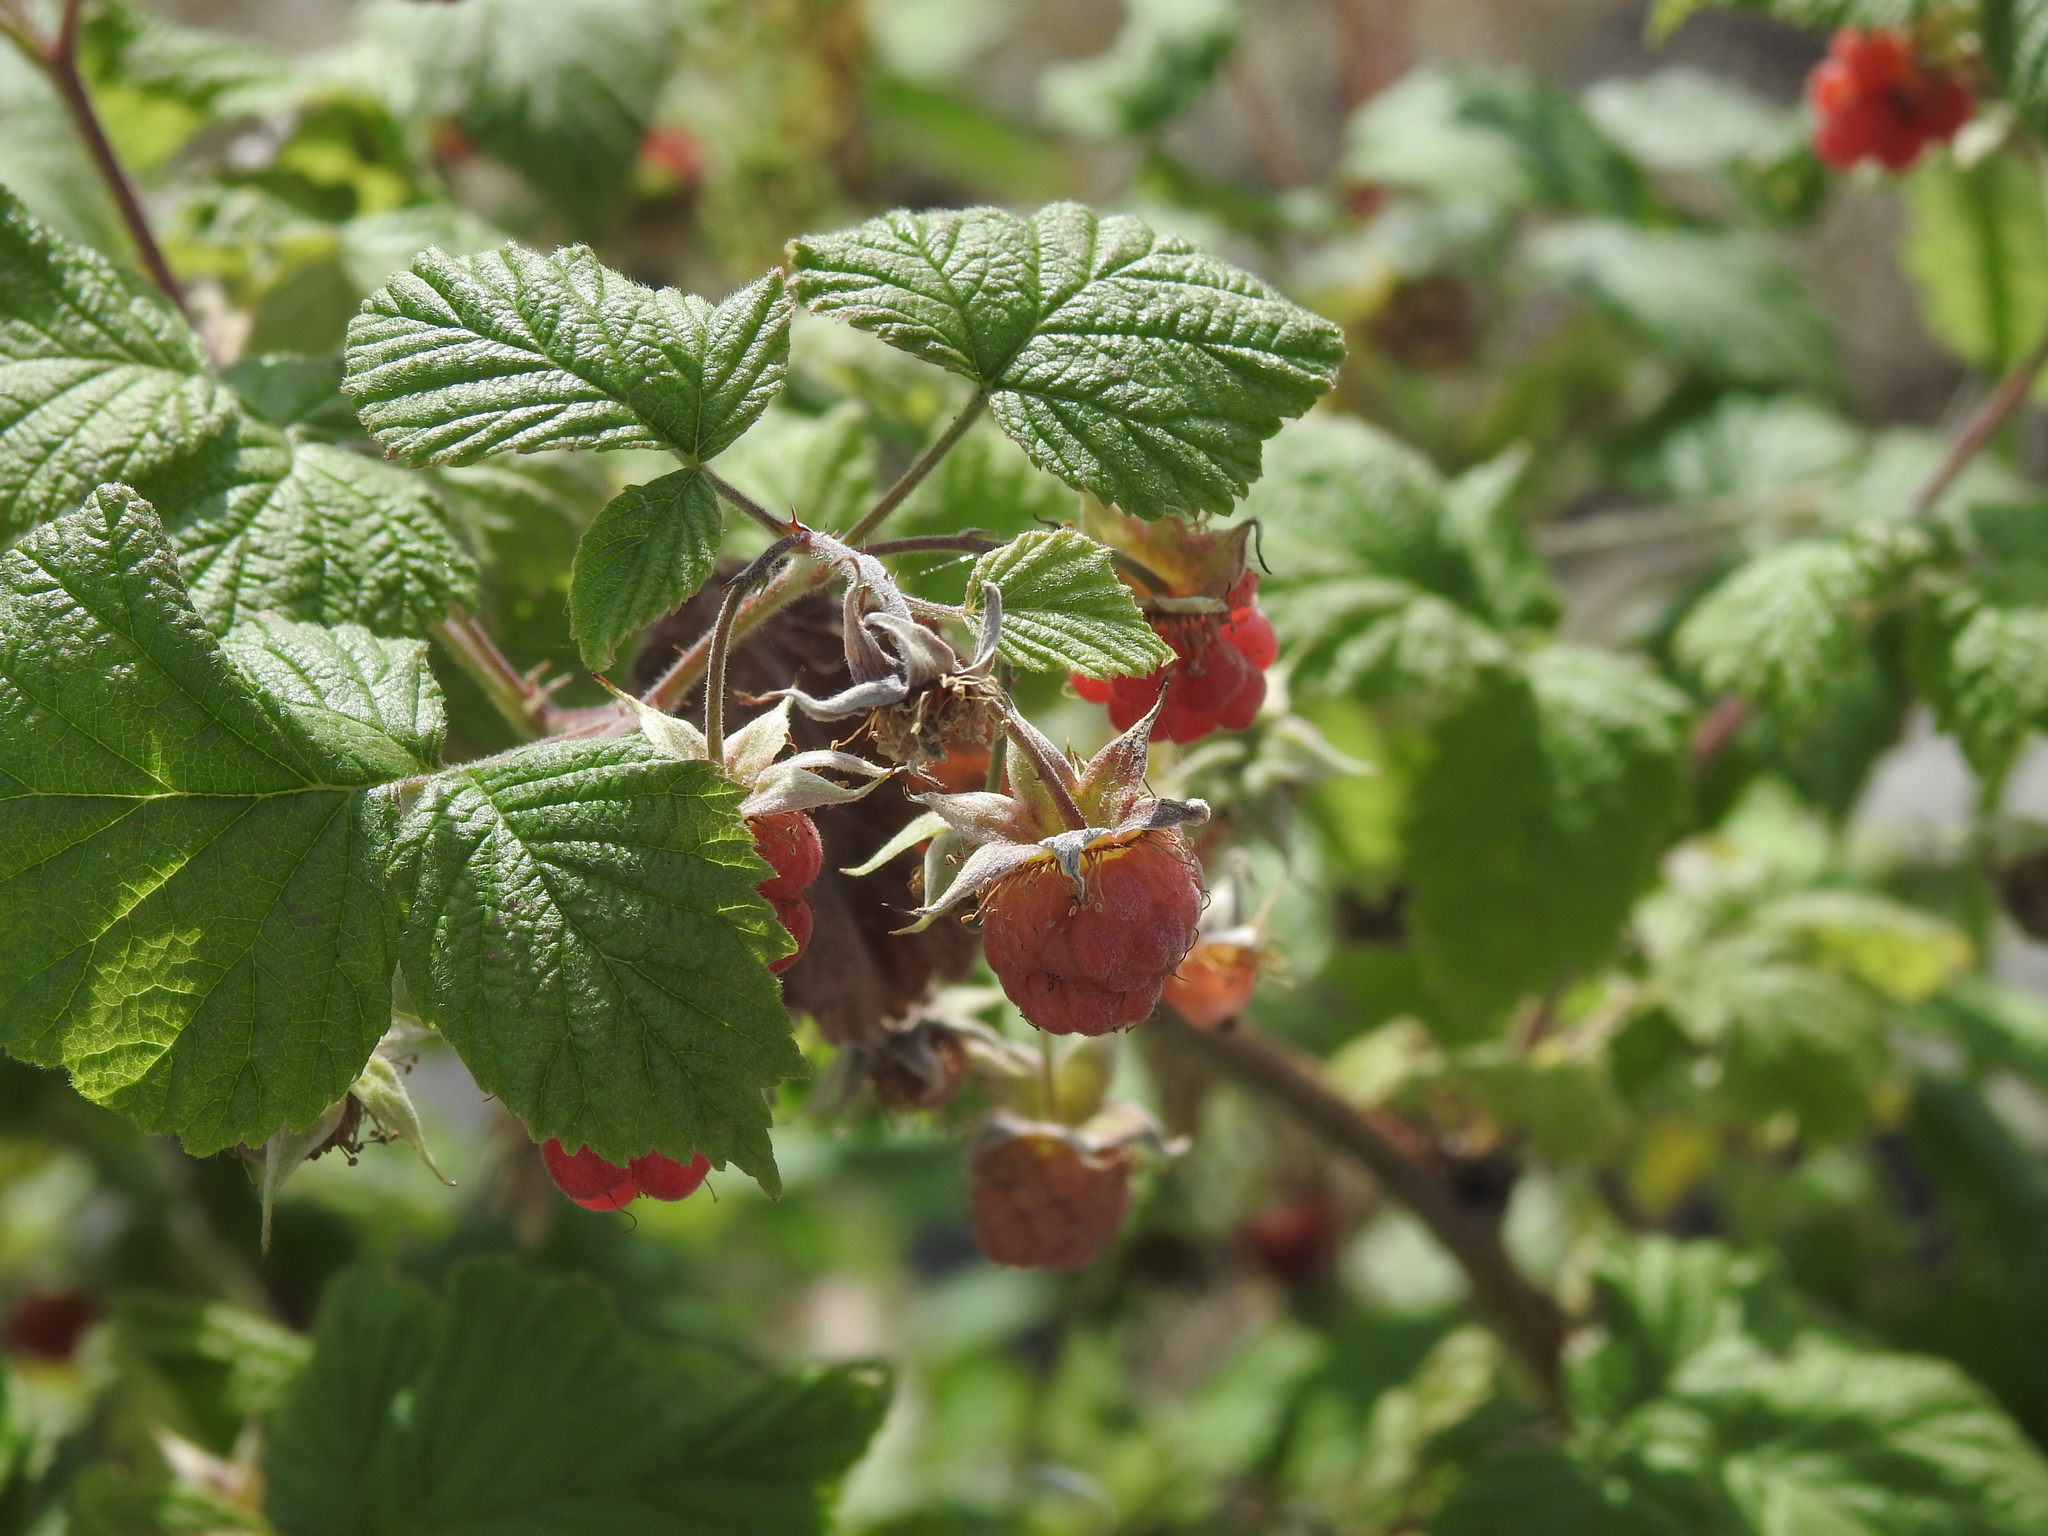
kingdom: Plantae
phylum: Tracheophyta
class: Magnoliopsida
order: Rosales
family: Rosaceae
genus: Rubus
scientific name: Rubus idaeus
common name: Raspberry
